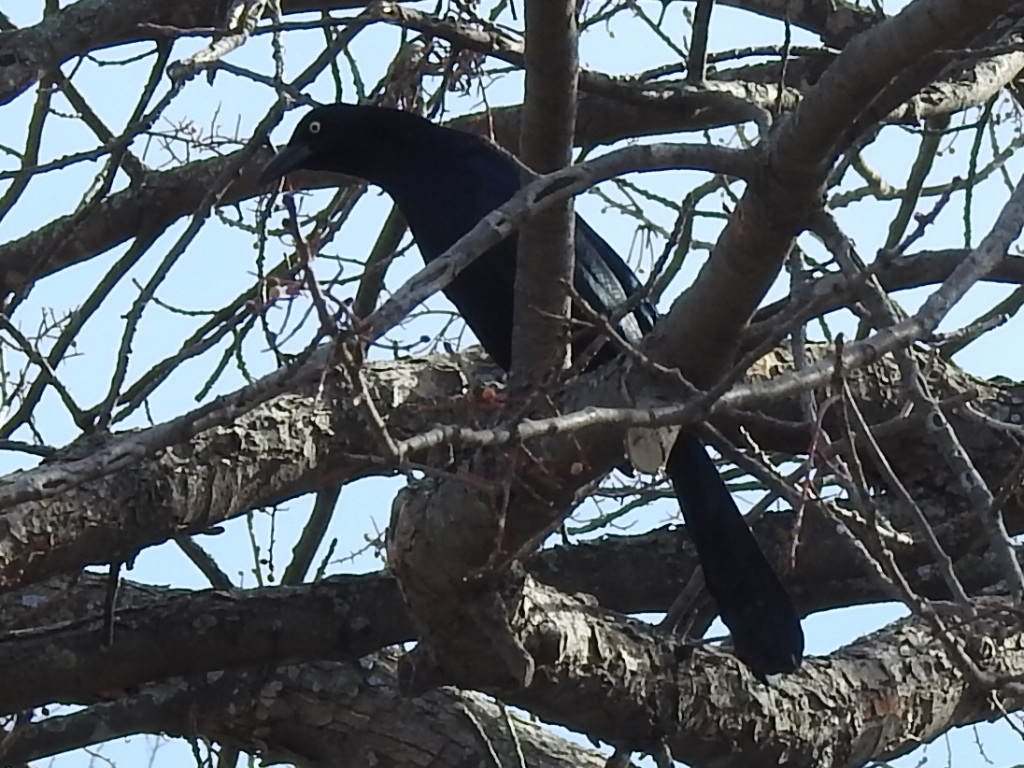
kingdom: Animalia
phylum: Chordata
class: Aves
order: Passeriformes
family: Icteridae
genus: Quiscalus
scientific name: Quiscalus mexicanus
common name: Great-tailed grackle
